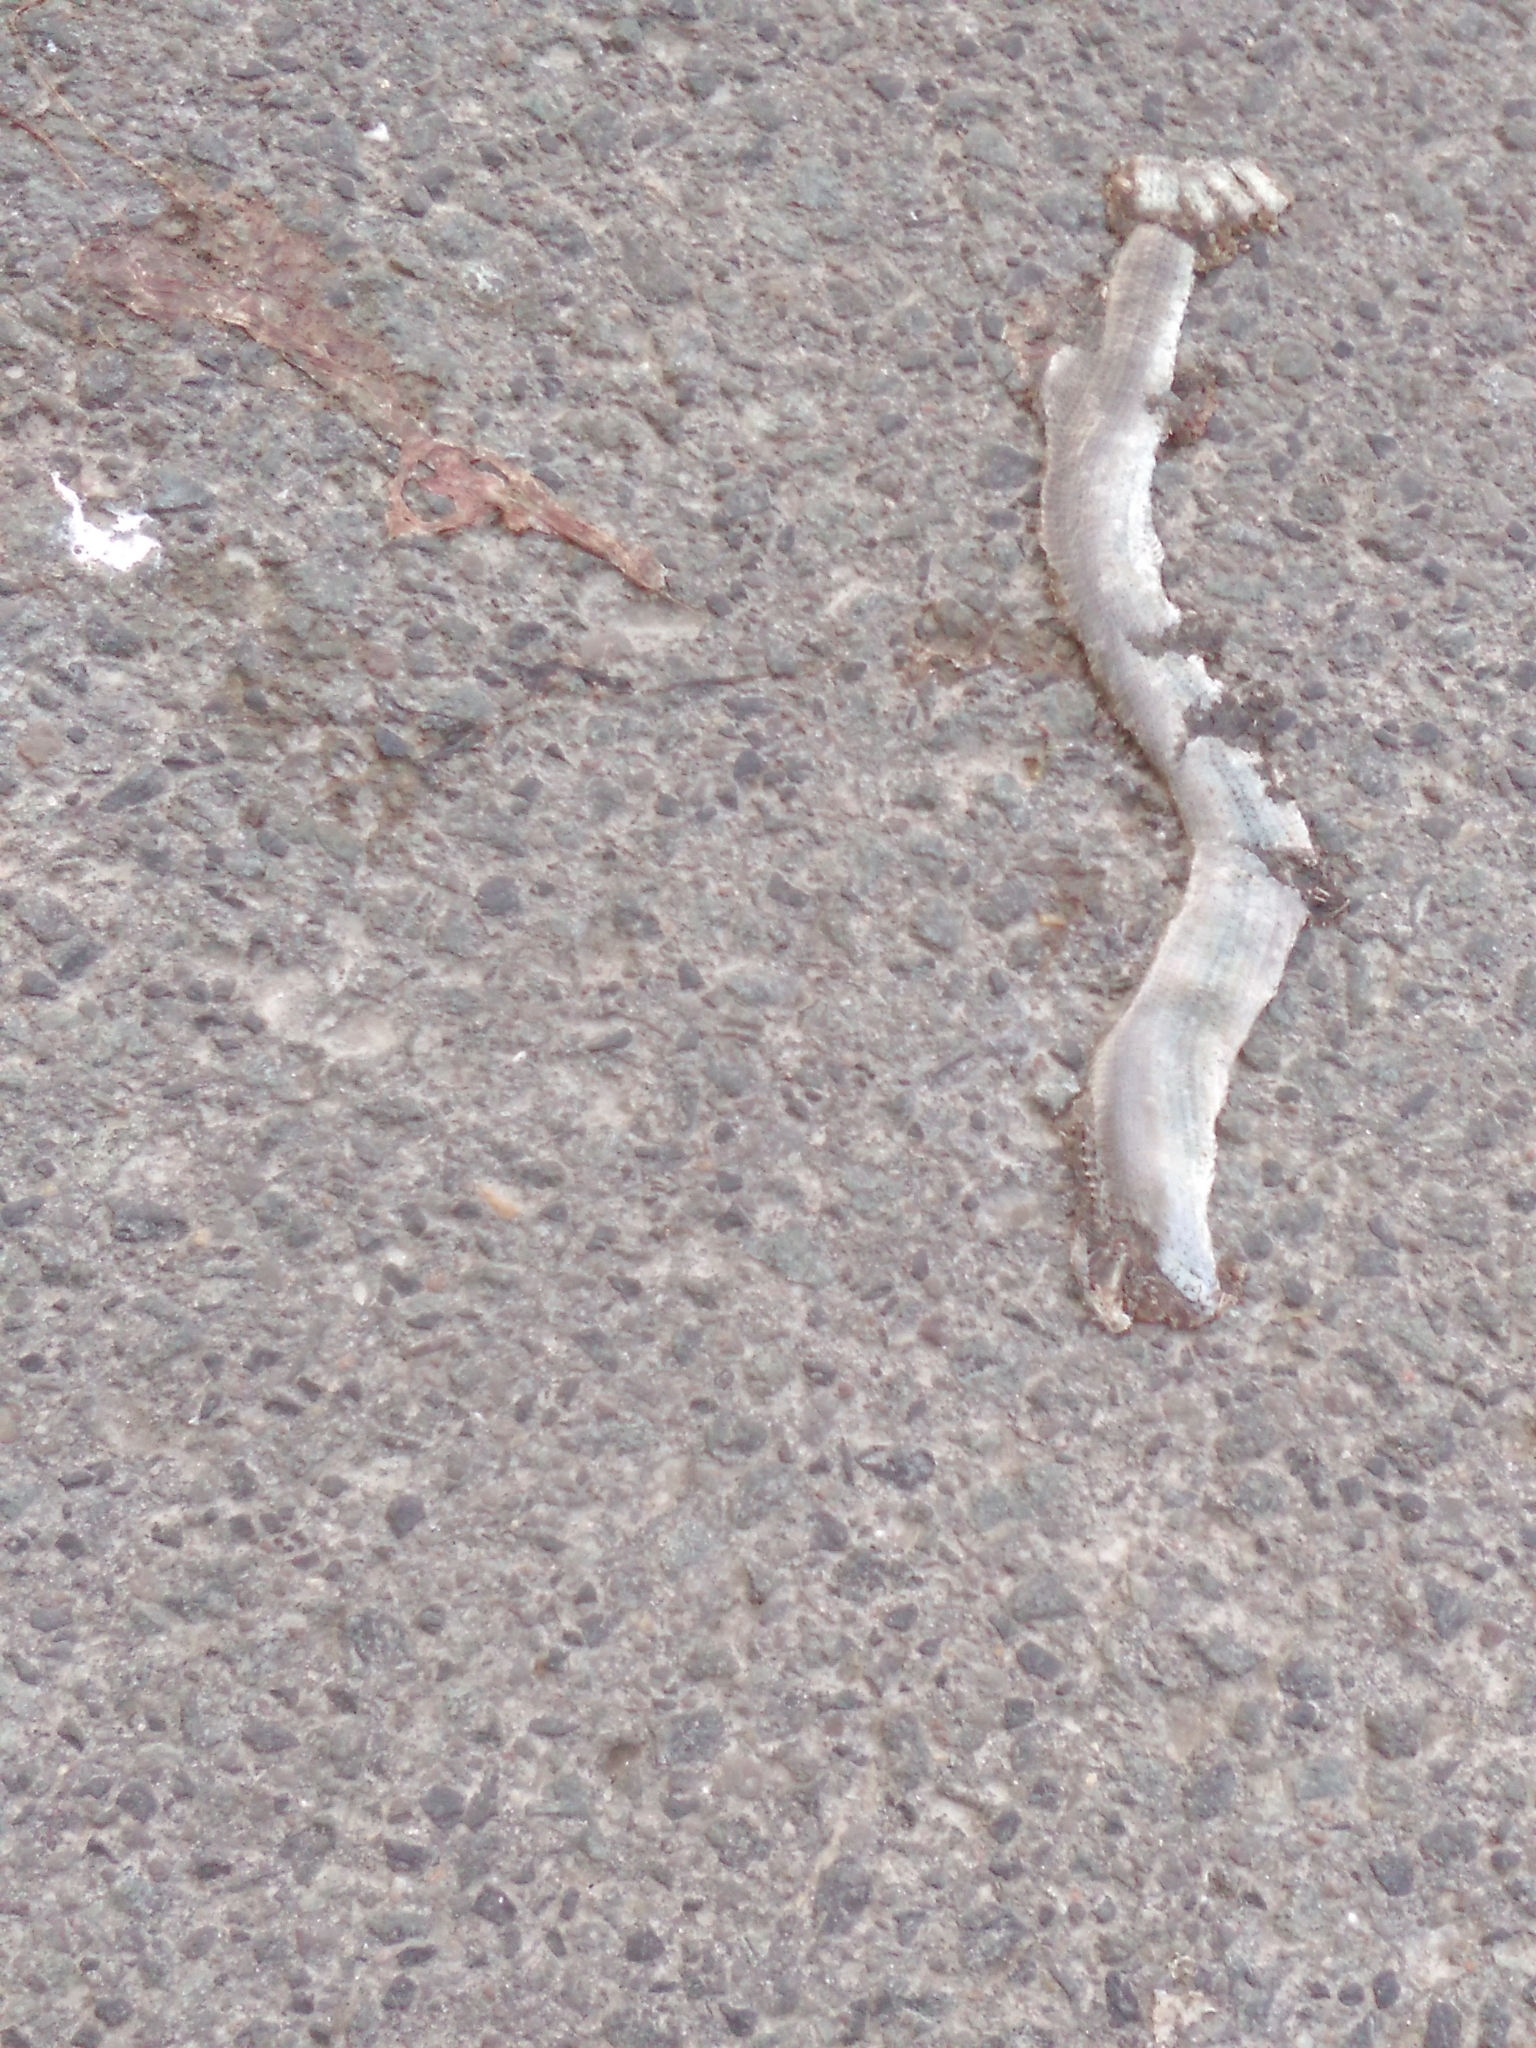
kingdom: Animalia
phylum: Chordata
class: Squamata
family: Anguidae
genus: Anguis
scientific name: Anguis fragilis
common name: Slow worm
